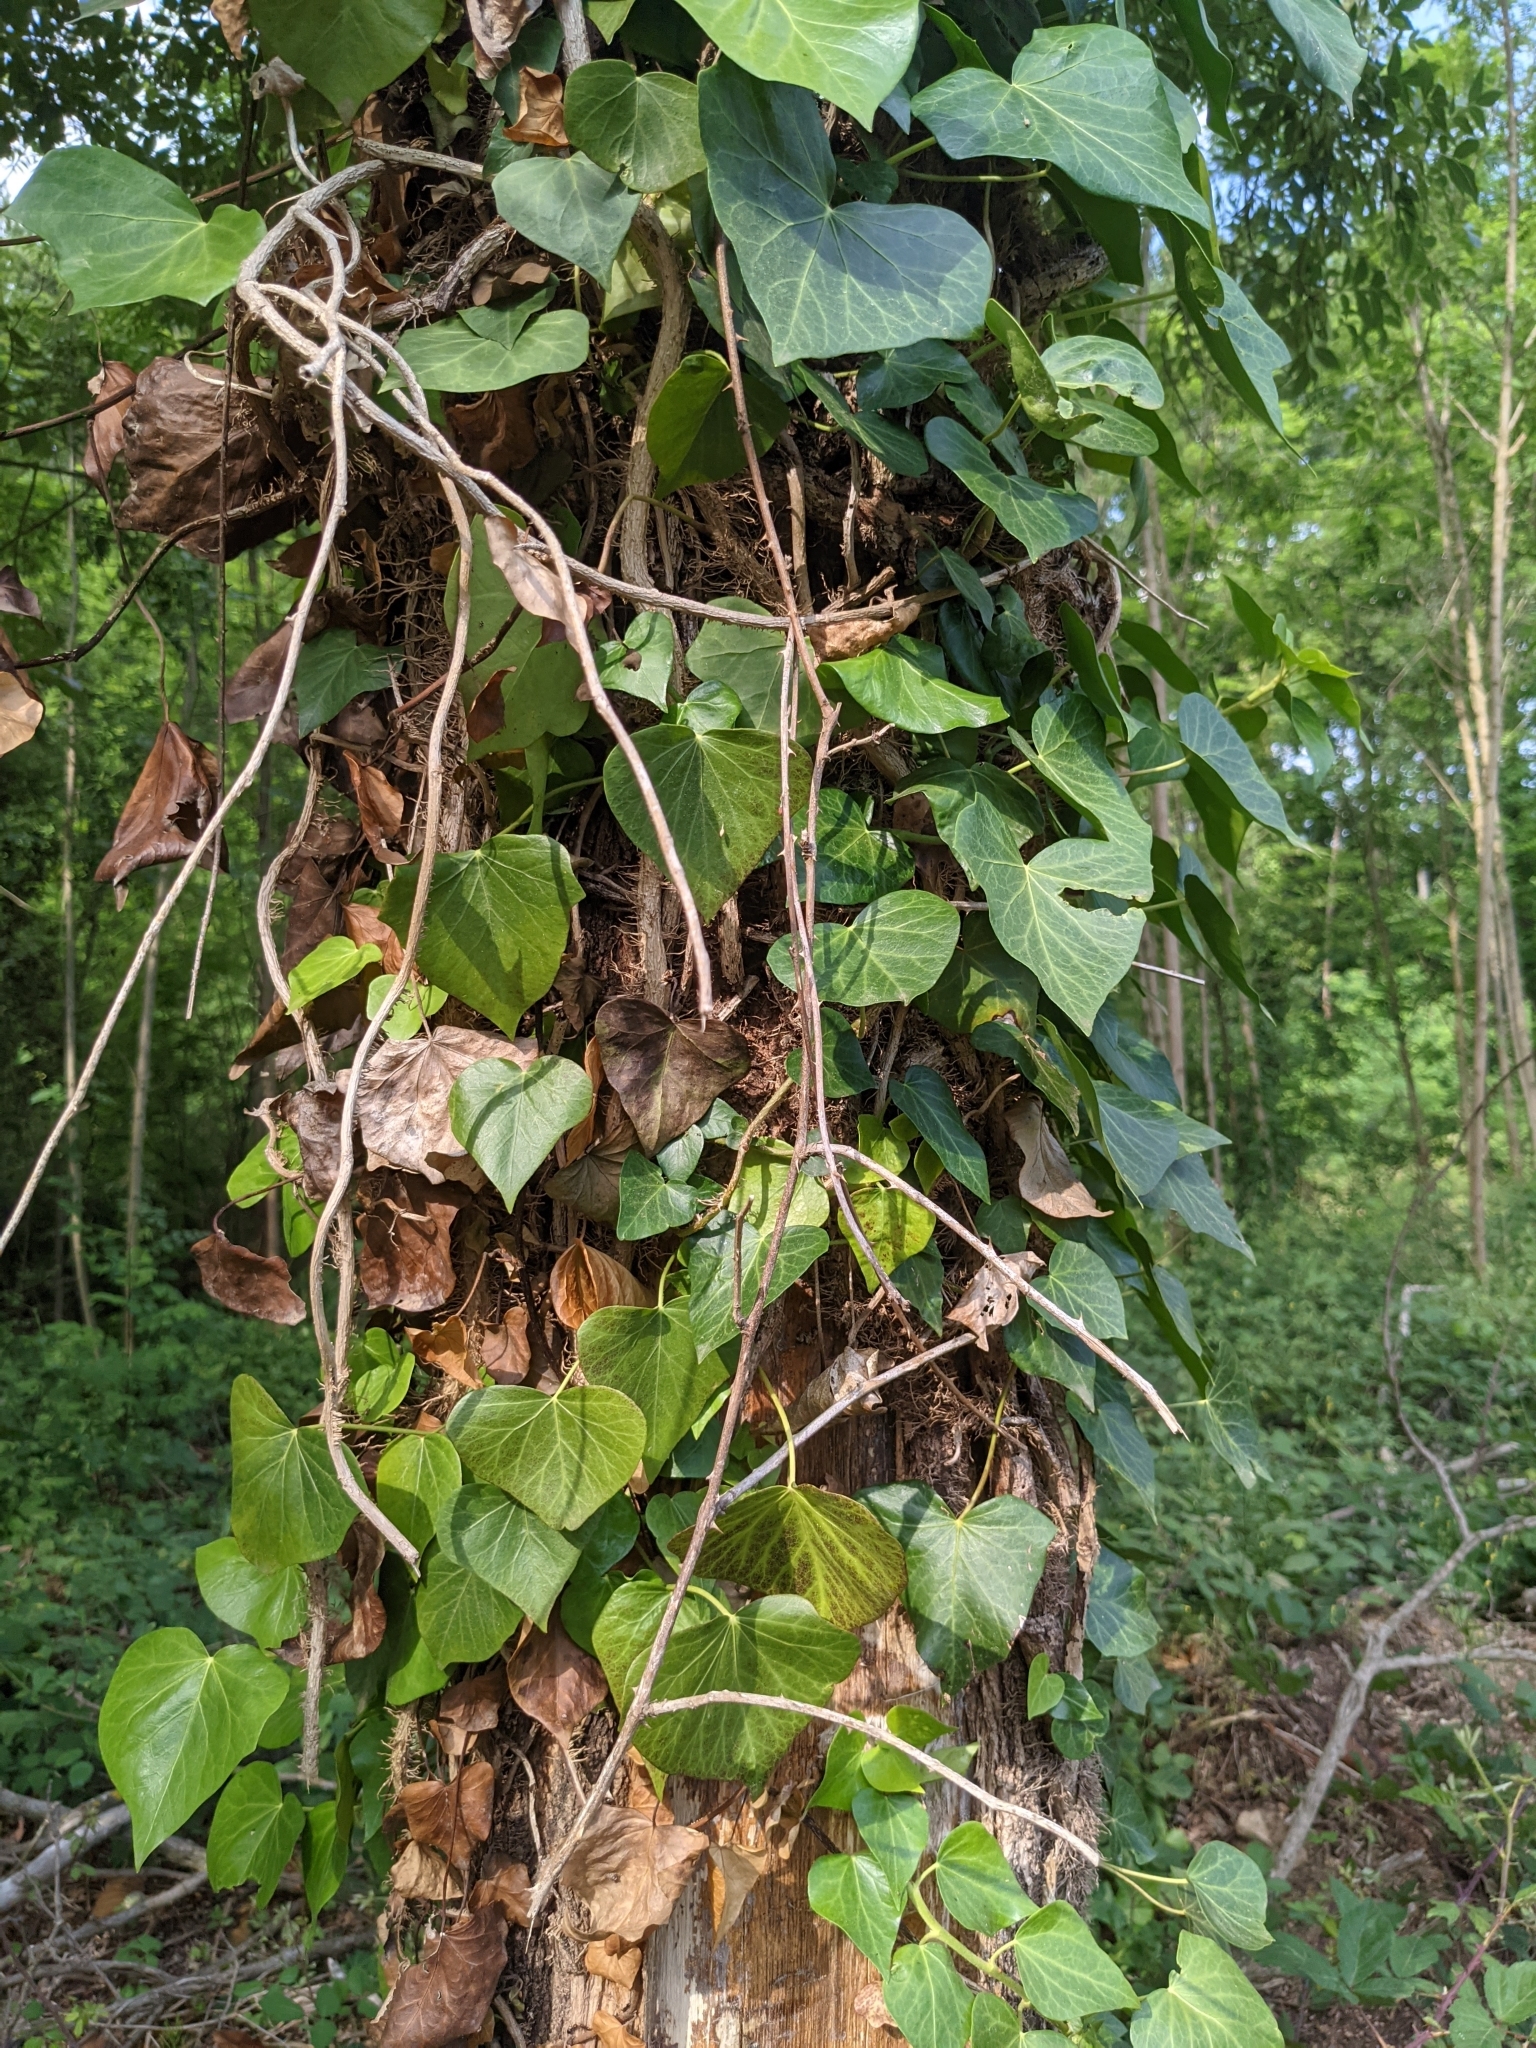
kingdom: Plantae
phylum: Tracheophyta
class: Magnoliopsida
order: Apiales
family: Araliaceae
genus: Hedera
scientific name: Hedera helix
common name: Ivy
